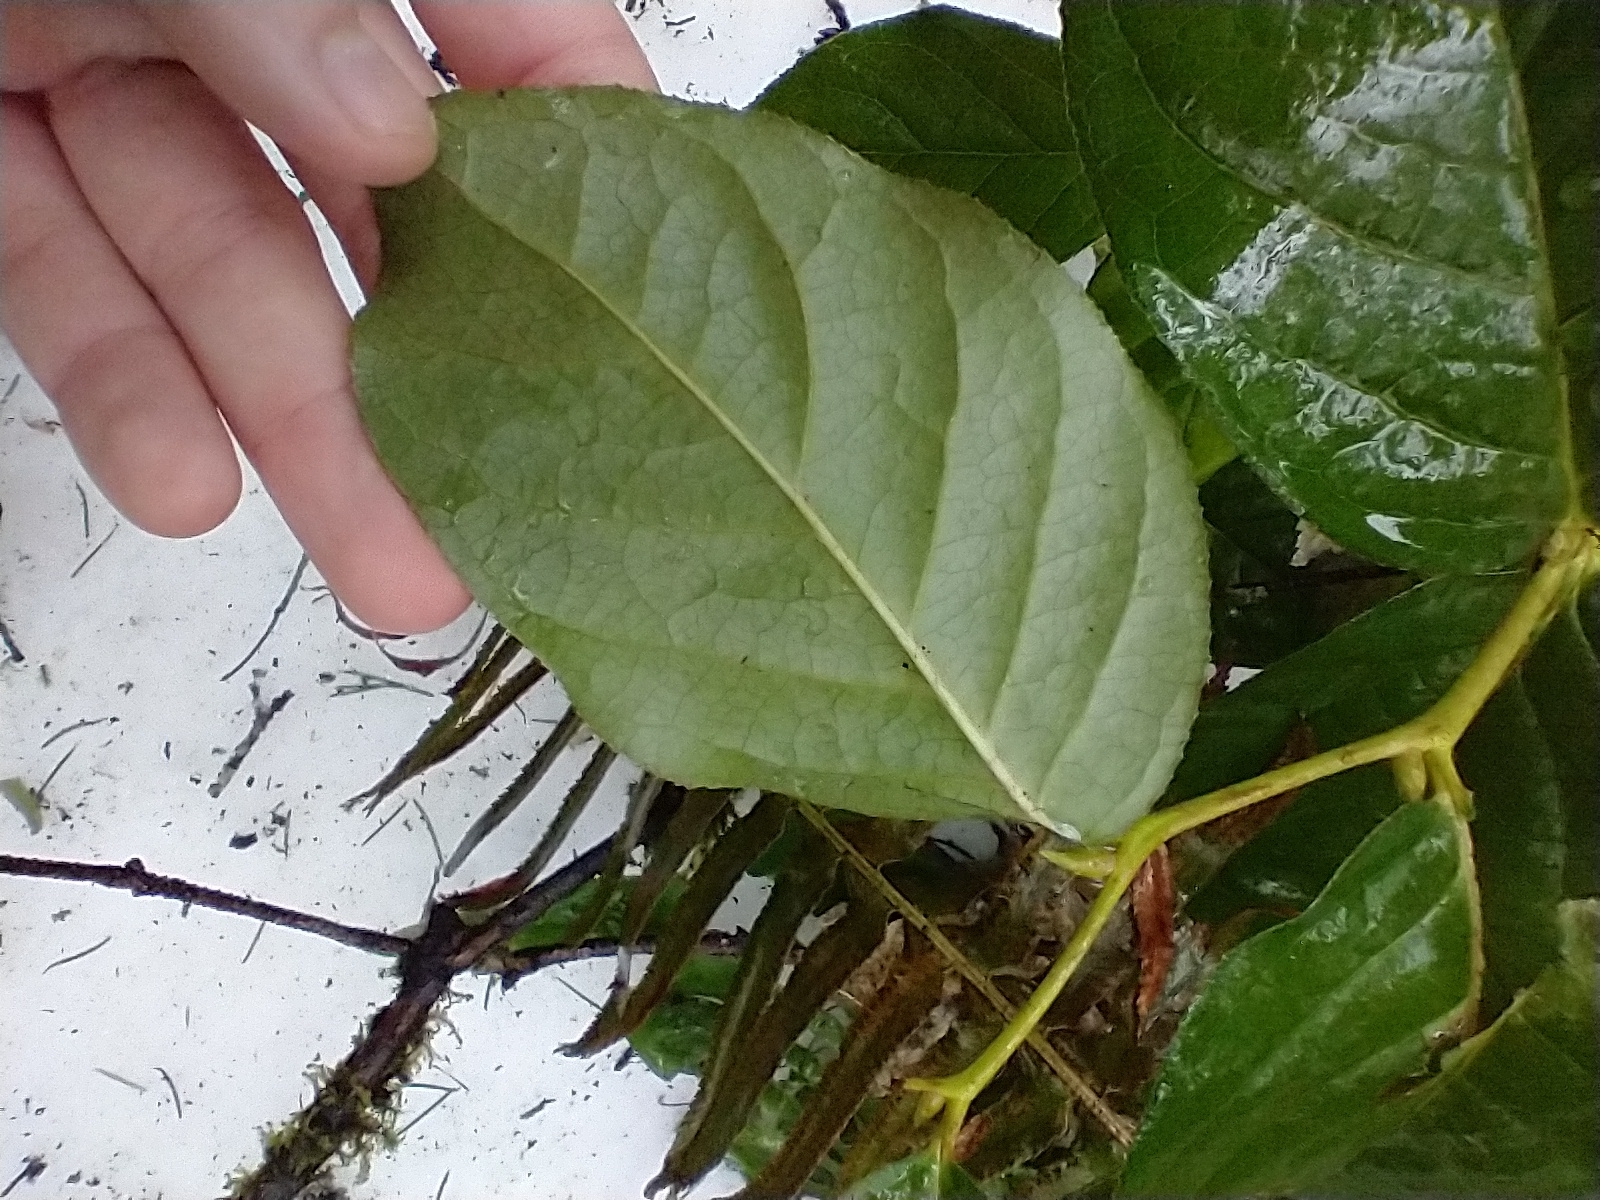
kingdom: Plantae
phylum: Tracheophyta
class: Magnoliopsida
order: Ericales
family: Ericaceae
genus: Gaultheria
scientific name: Gaultheria shallon
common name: Shallon
